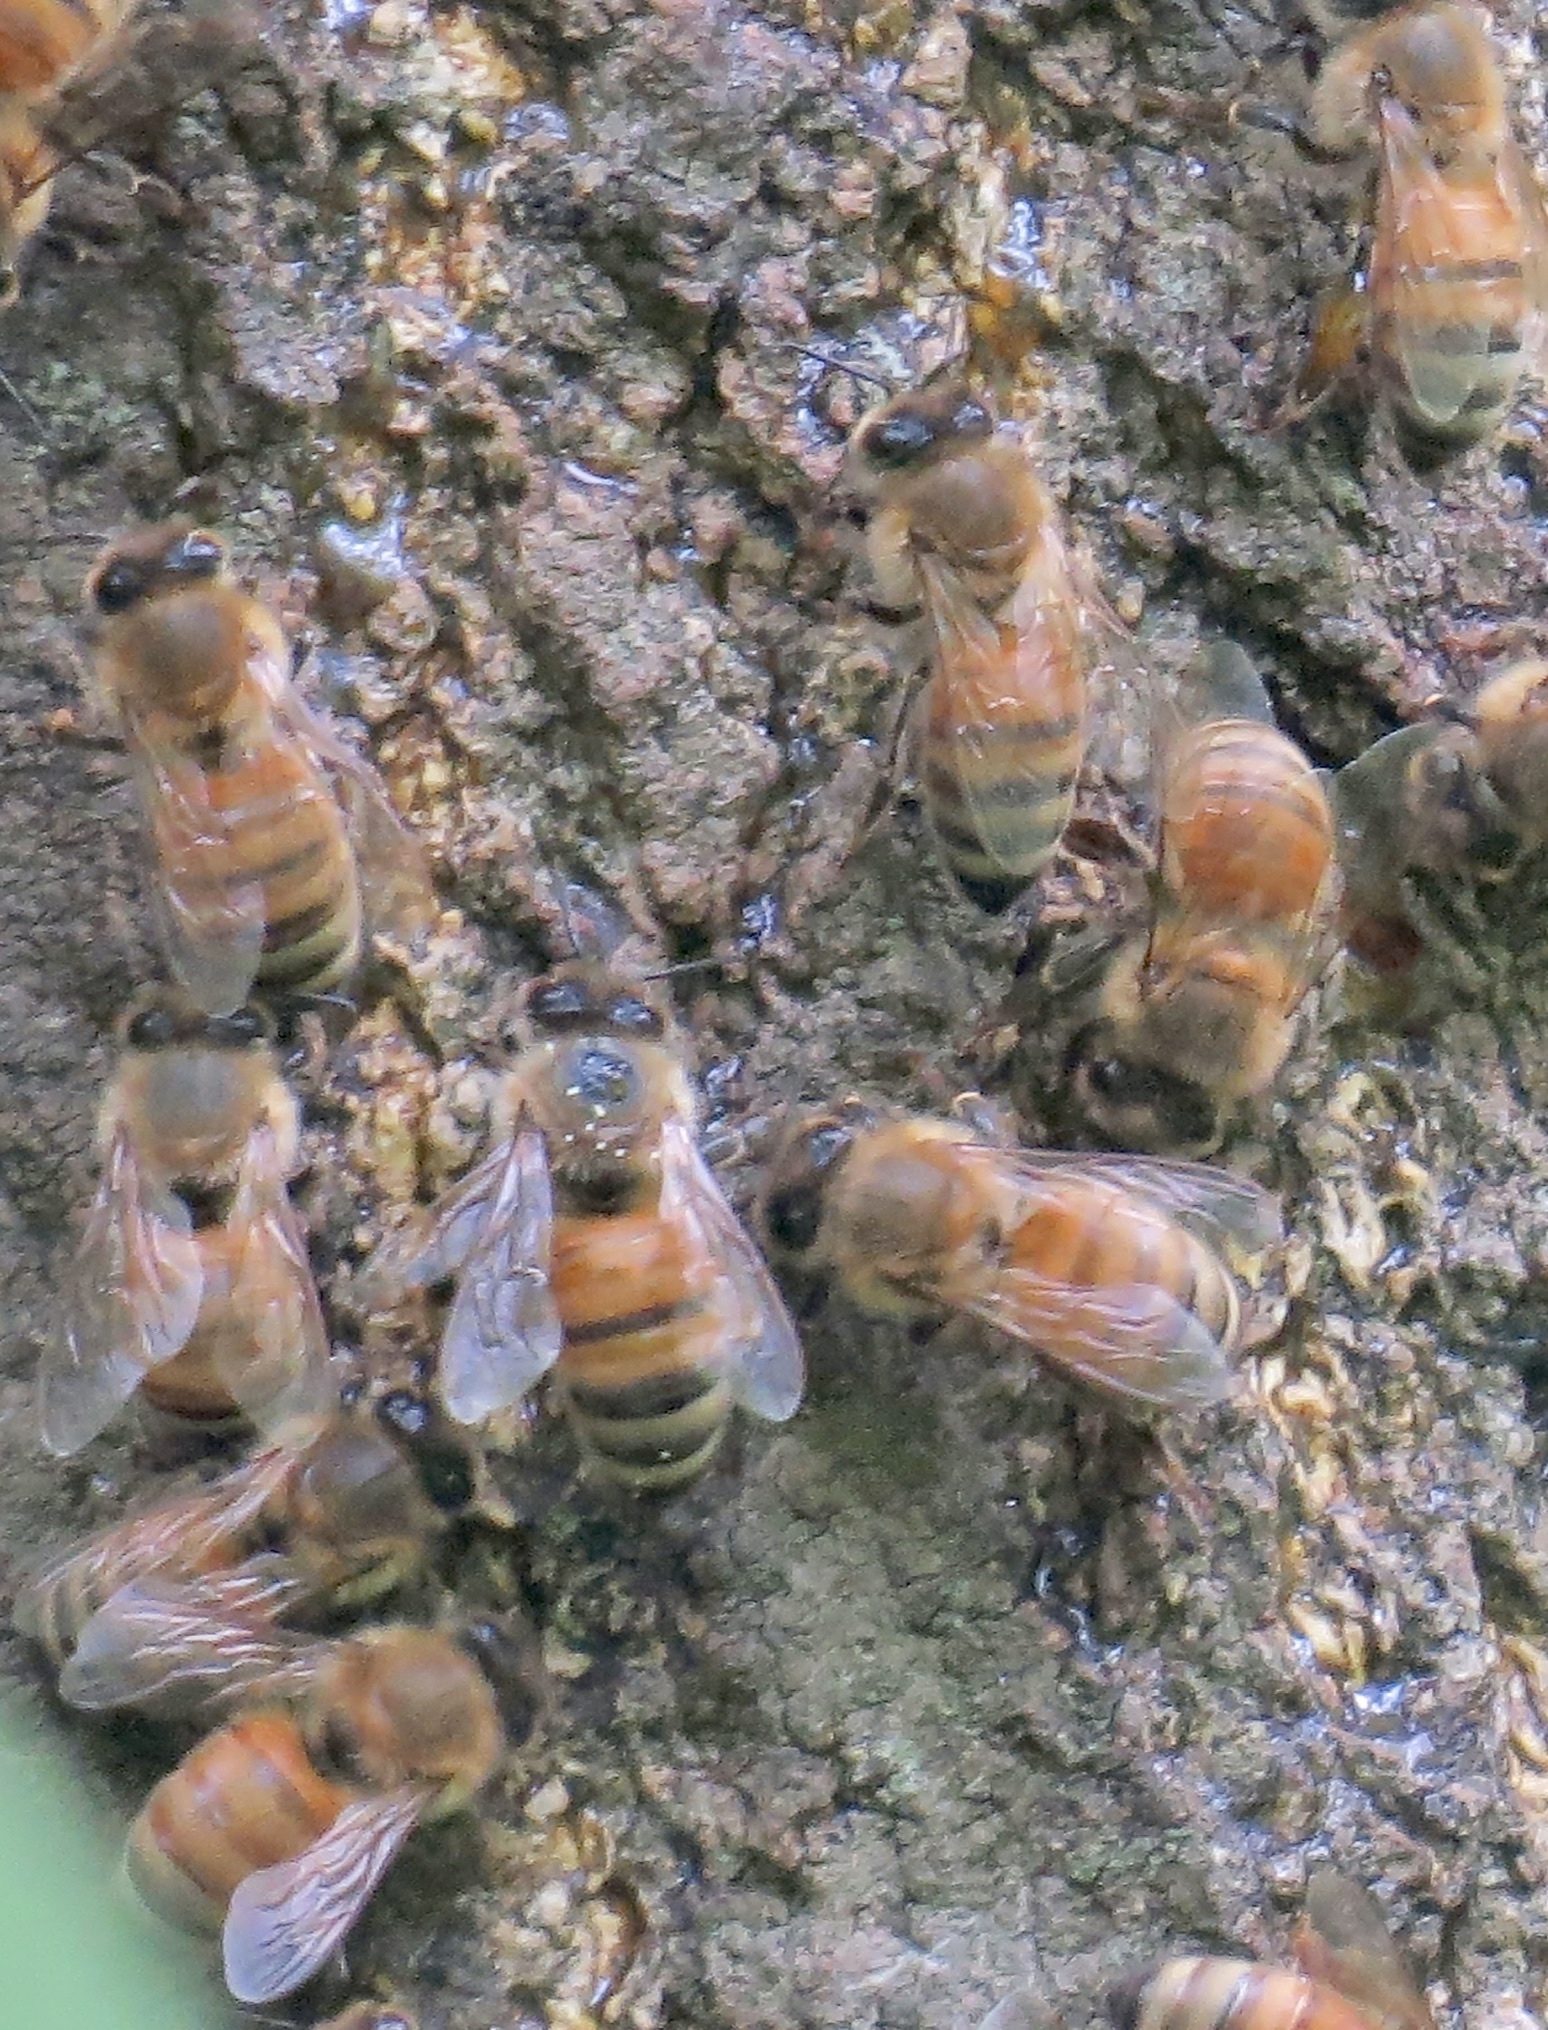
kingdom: Animalia
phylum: Arthropoda
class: Insecta
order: Hymenoptera
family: Apidae
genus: Apis
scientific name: Apis mellifera
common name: Honey bee
